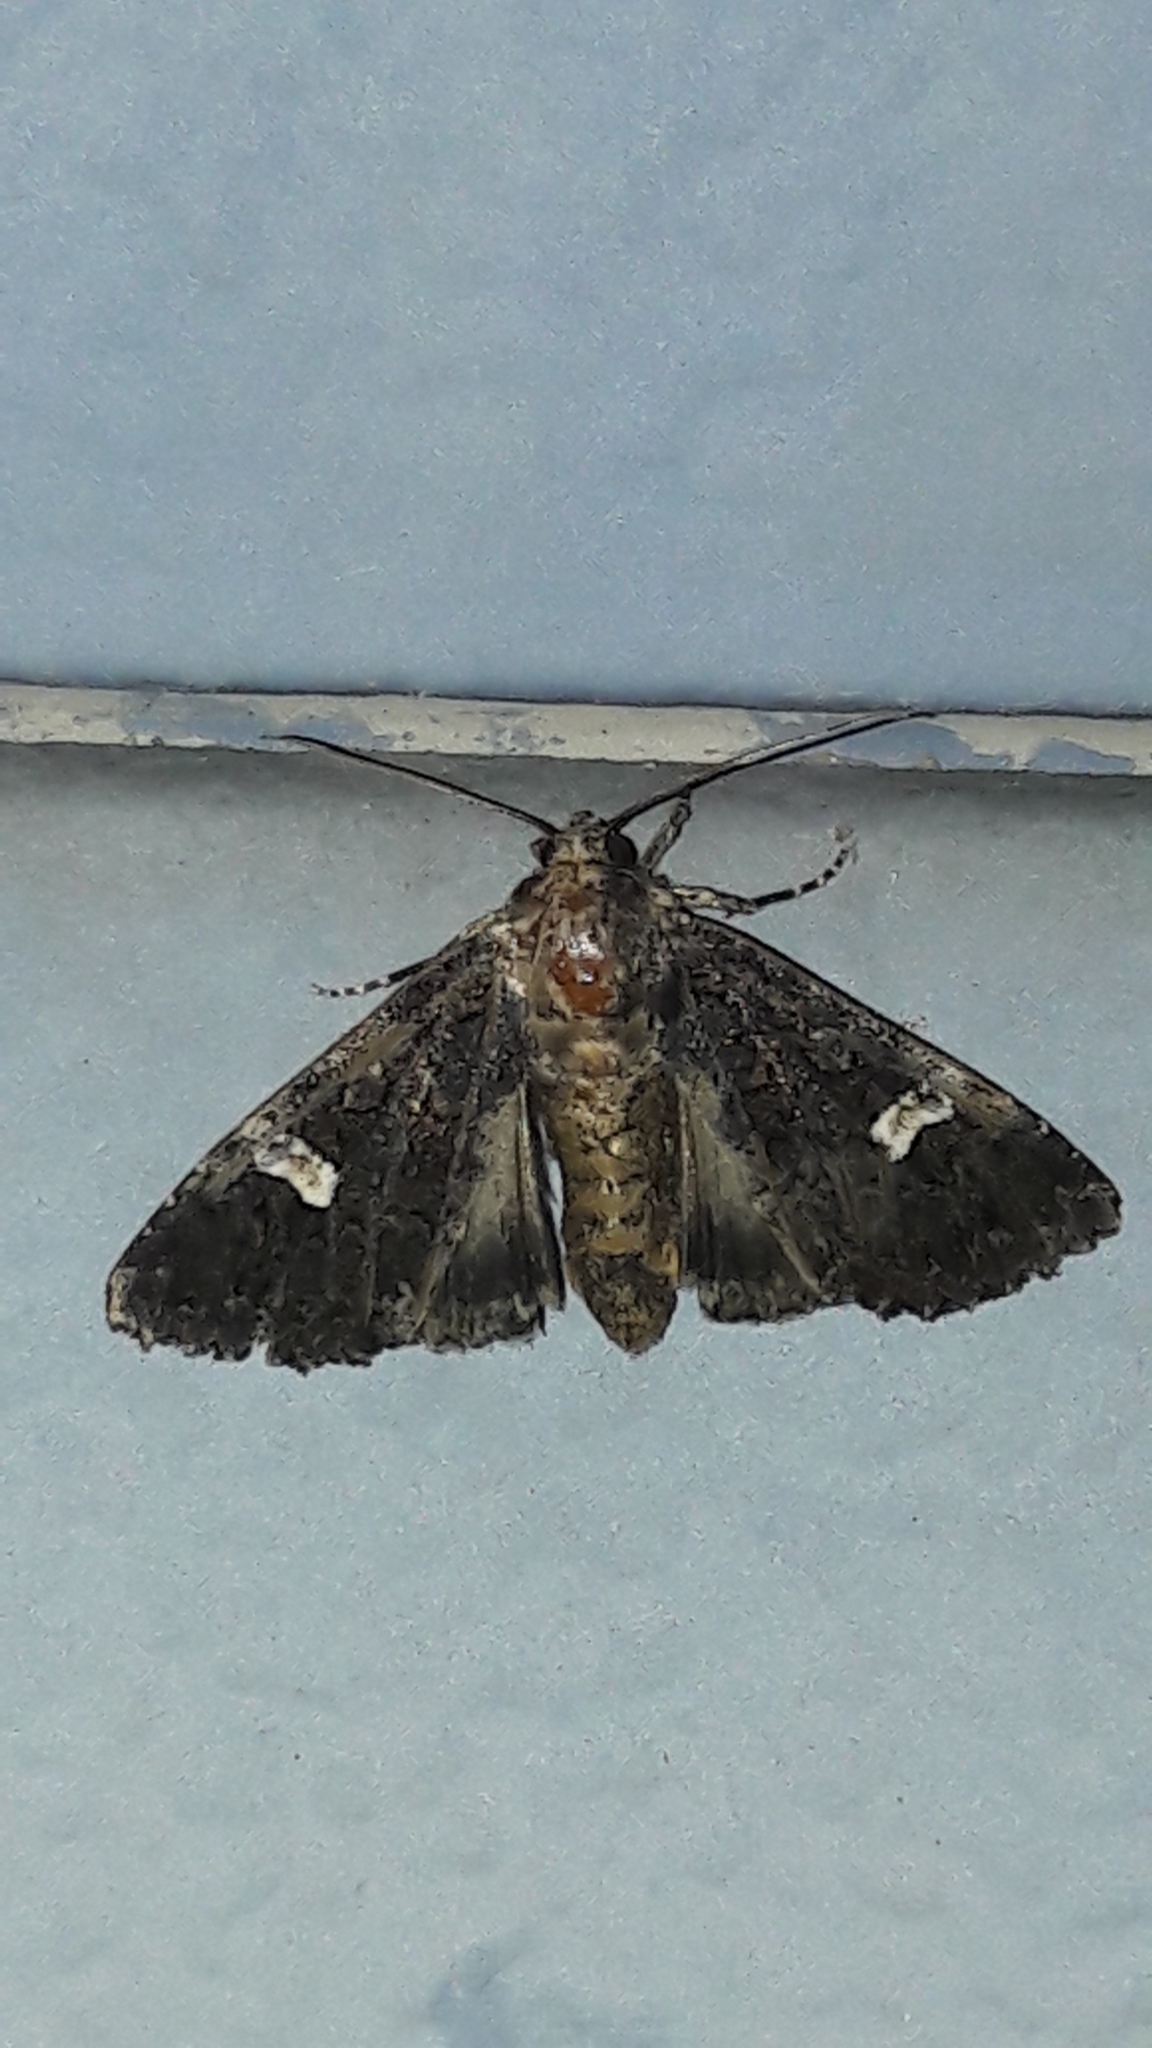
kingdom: Animalia
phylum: Arthropoda
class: Insecta
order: Lepidoptera
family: Noctuidae
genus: Melanchra
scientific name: Melanchra persicariae
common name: Dot moth
